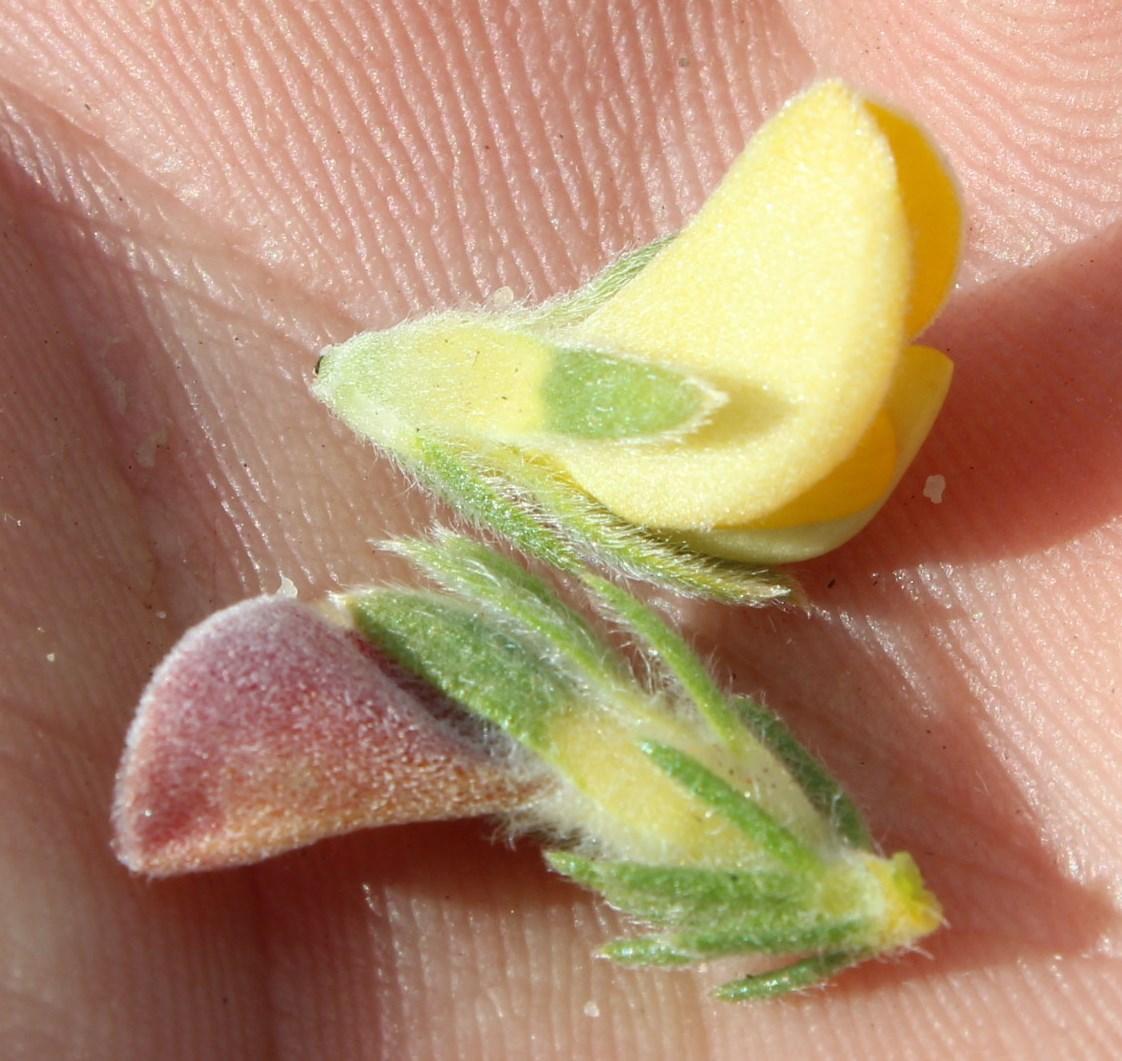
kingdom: Plantae
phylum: Tracheophyta
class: Magnoliopsida
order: Fabales
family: Fabaceae
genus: Aspalathus
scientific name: Aspalathus linguiloba
